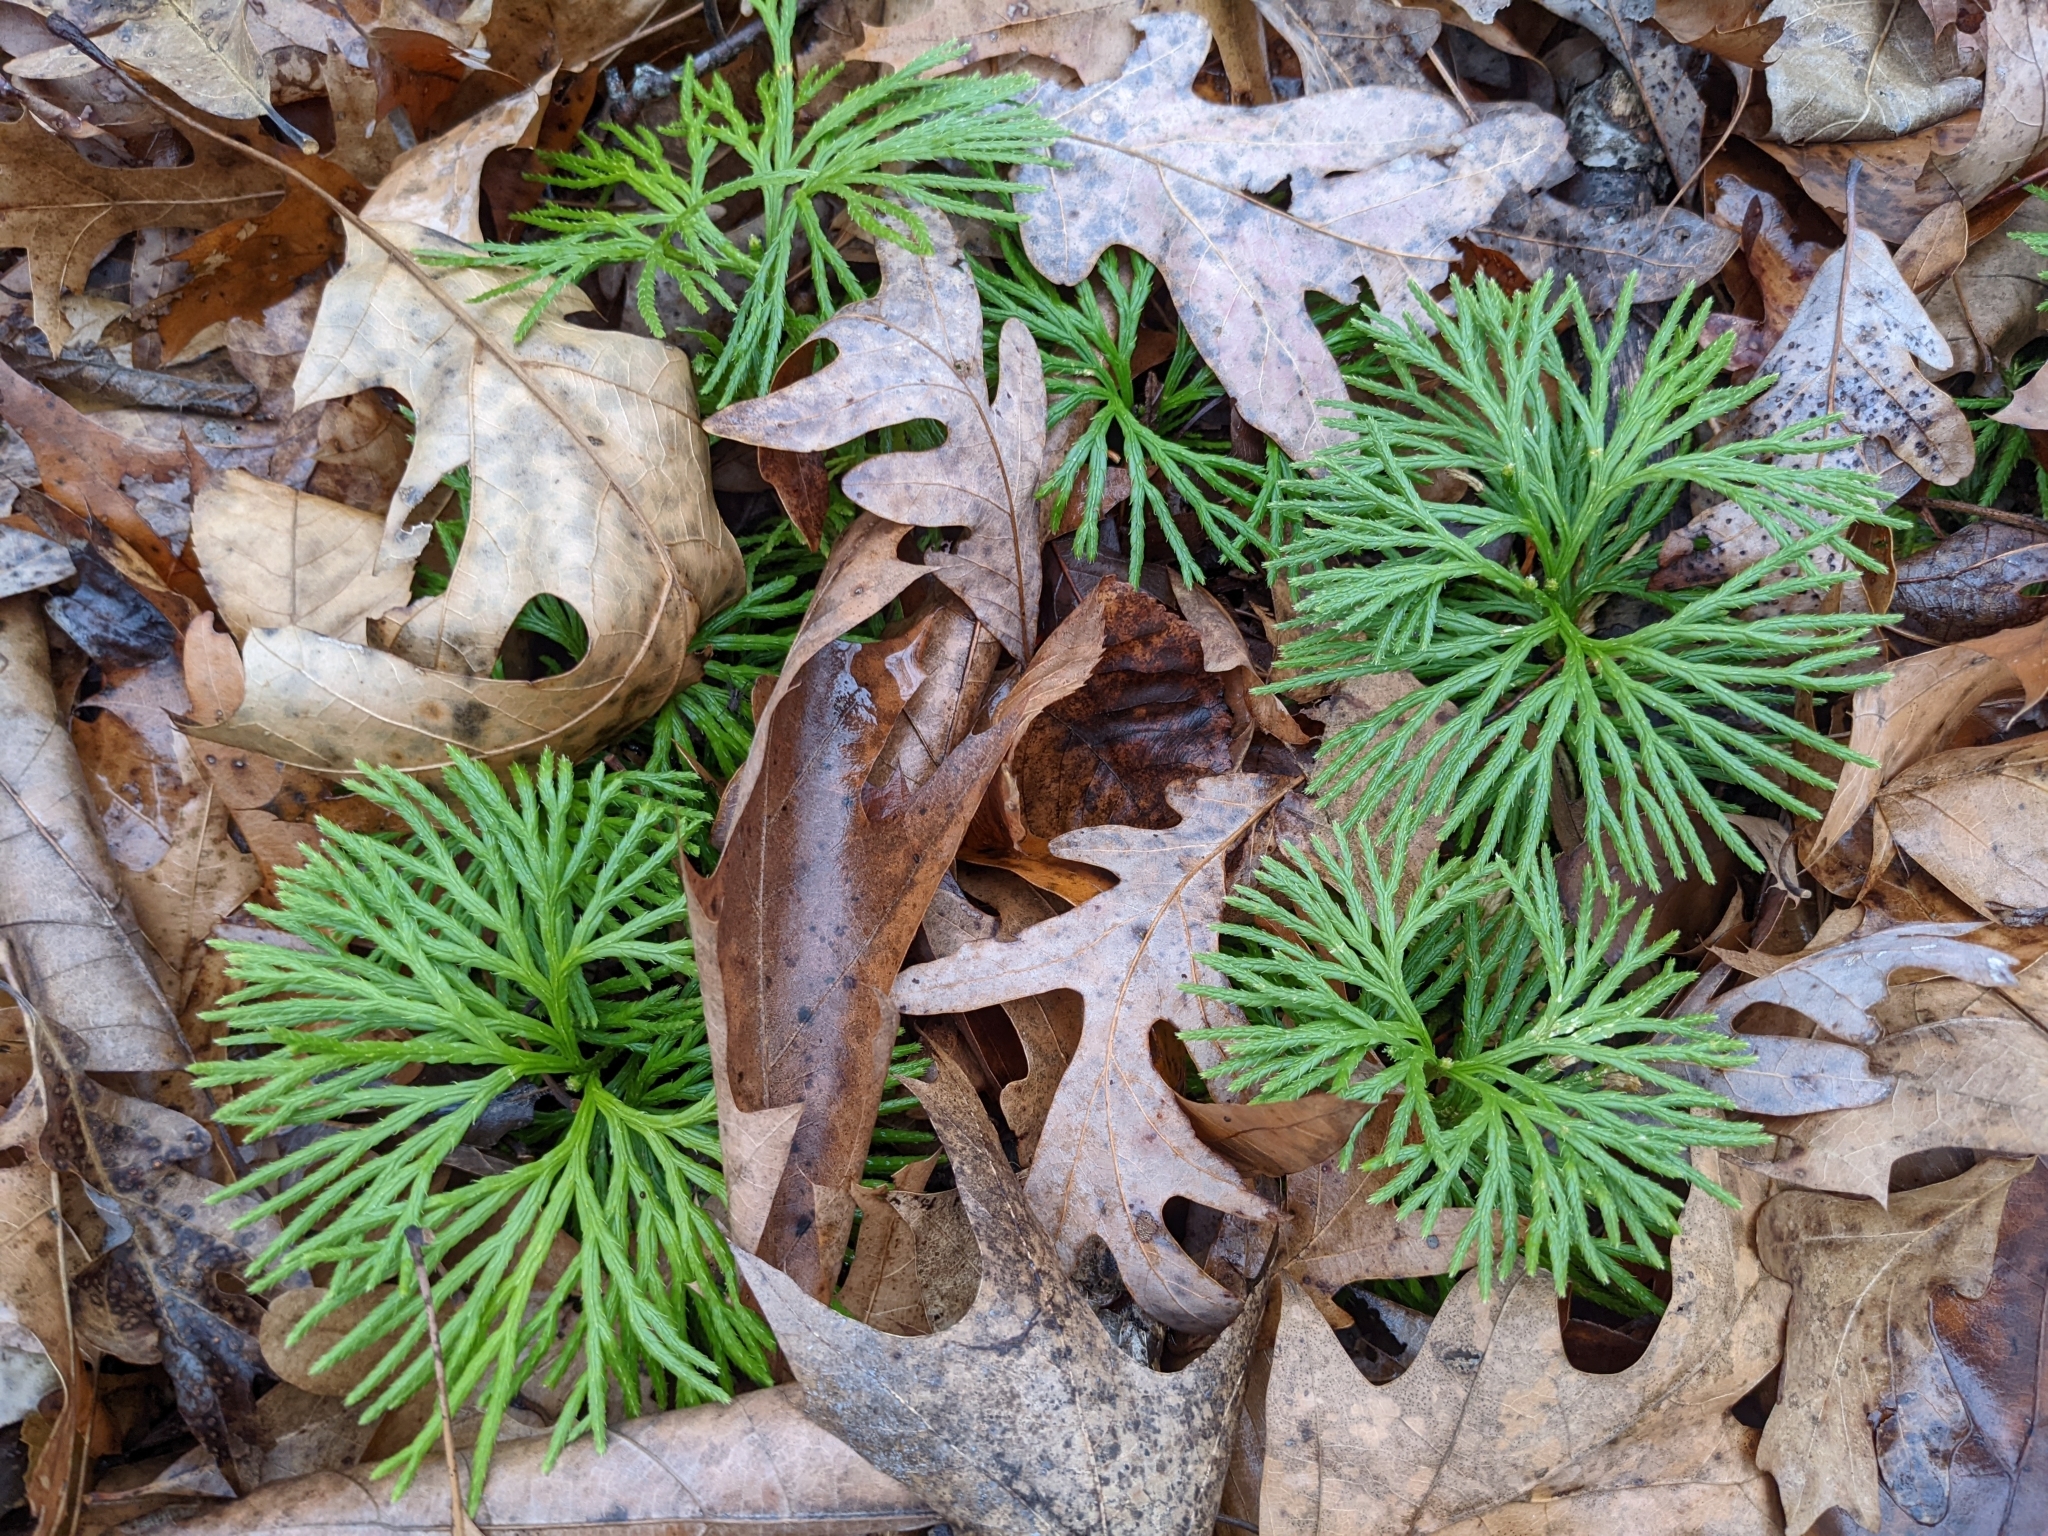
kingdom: Plantae
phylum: Tracheophyta
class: Lycopodiopsida
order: Lycopodiales
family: Lycopodiaceae
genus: Diphasiastrum
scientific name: Diphasiastrum digitatum
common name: Southern running-pine
